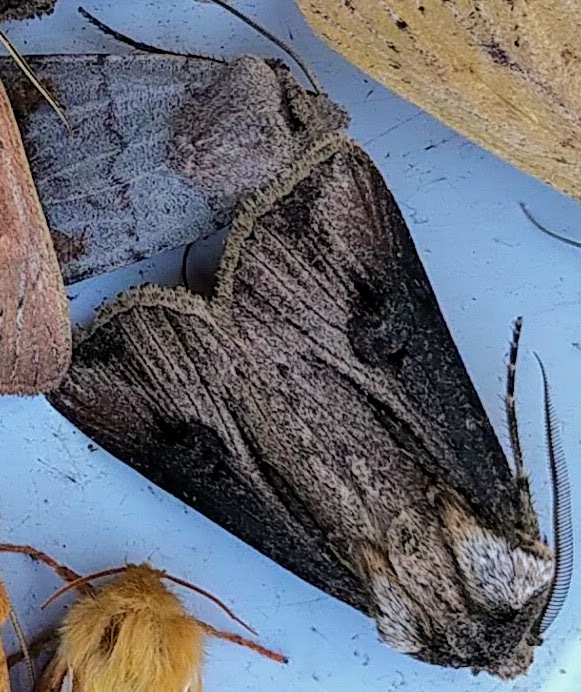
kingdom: Animalia
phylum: Arthropoda
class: Insecta
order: Lepidoptera
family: Noctuidae
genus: Agrotis
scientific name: Agrotis venerabilis
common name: Venerable dart
